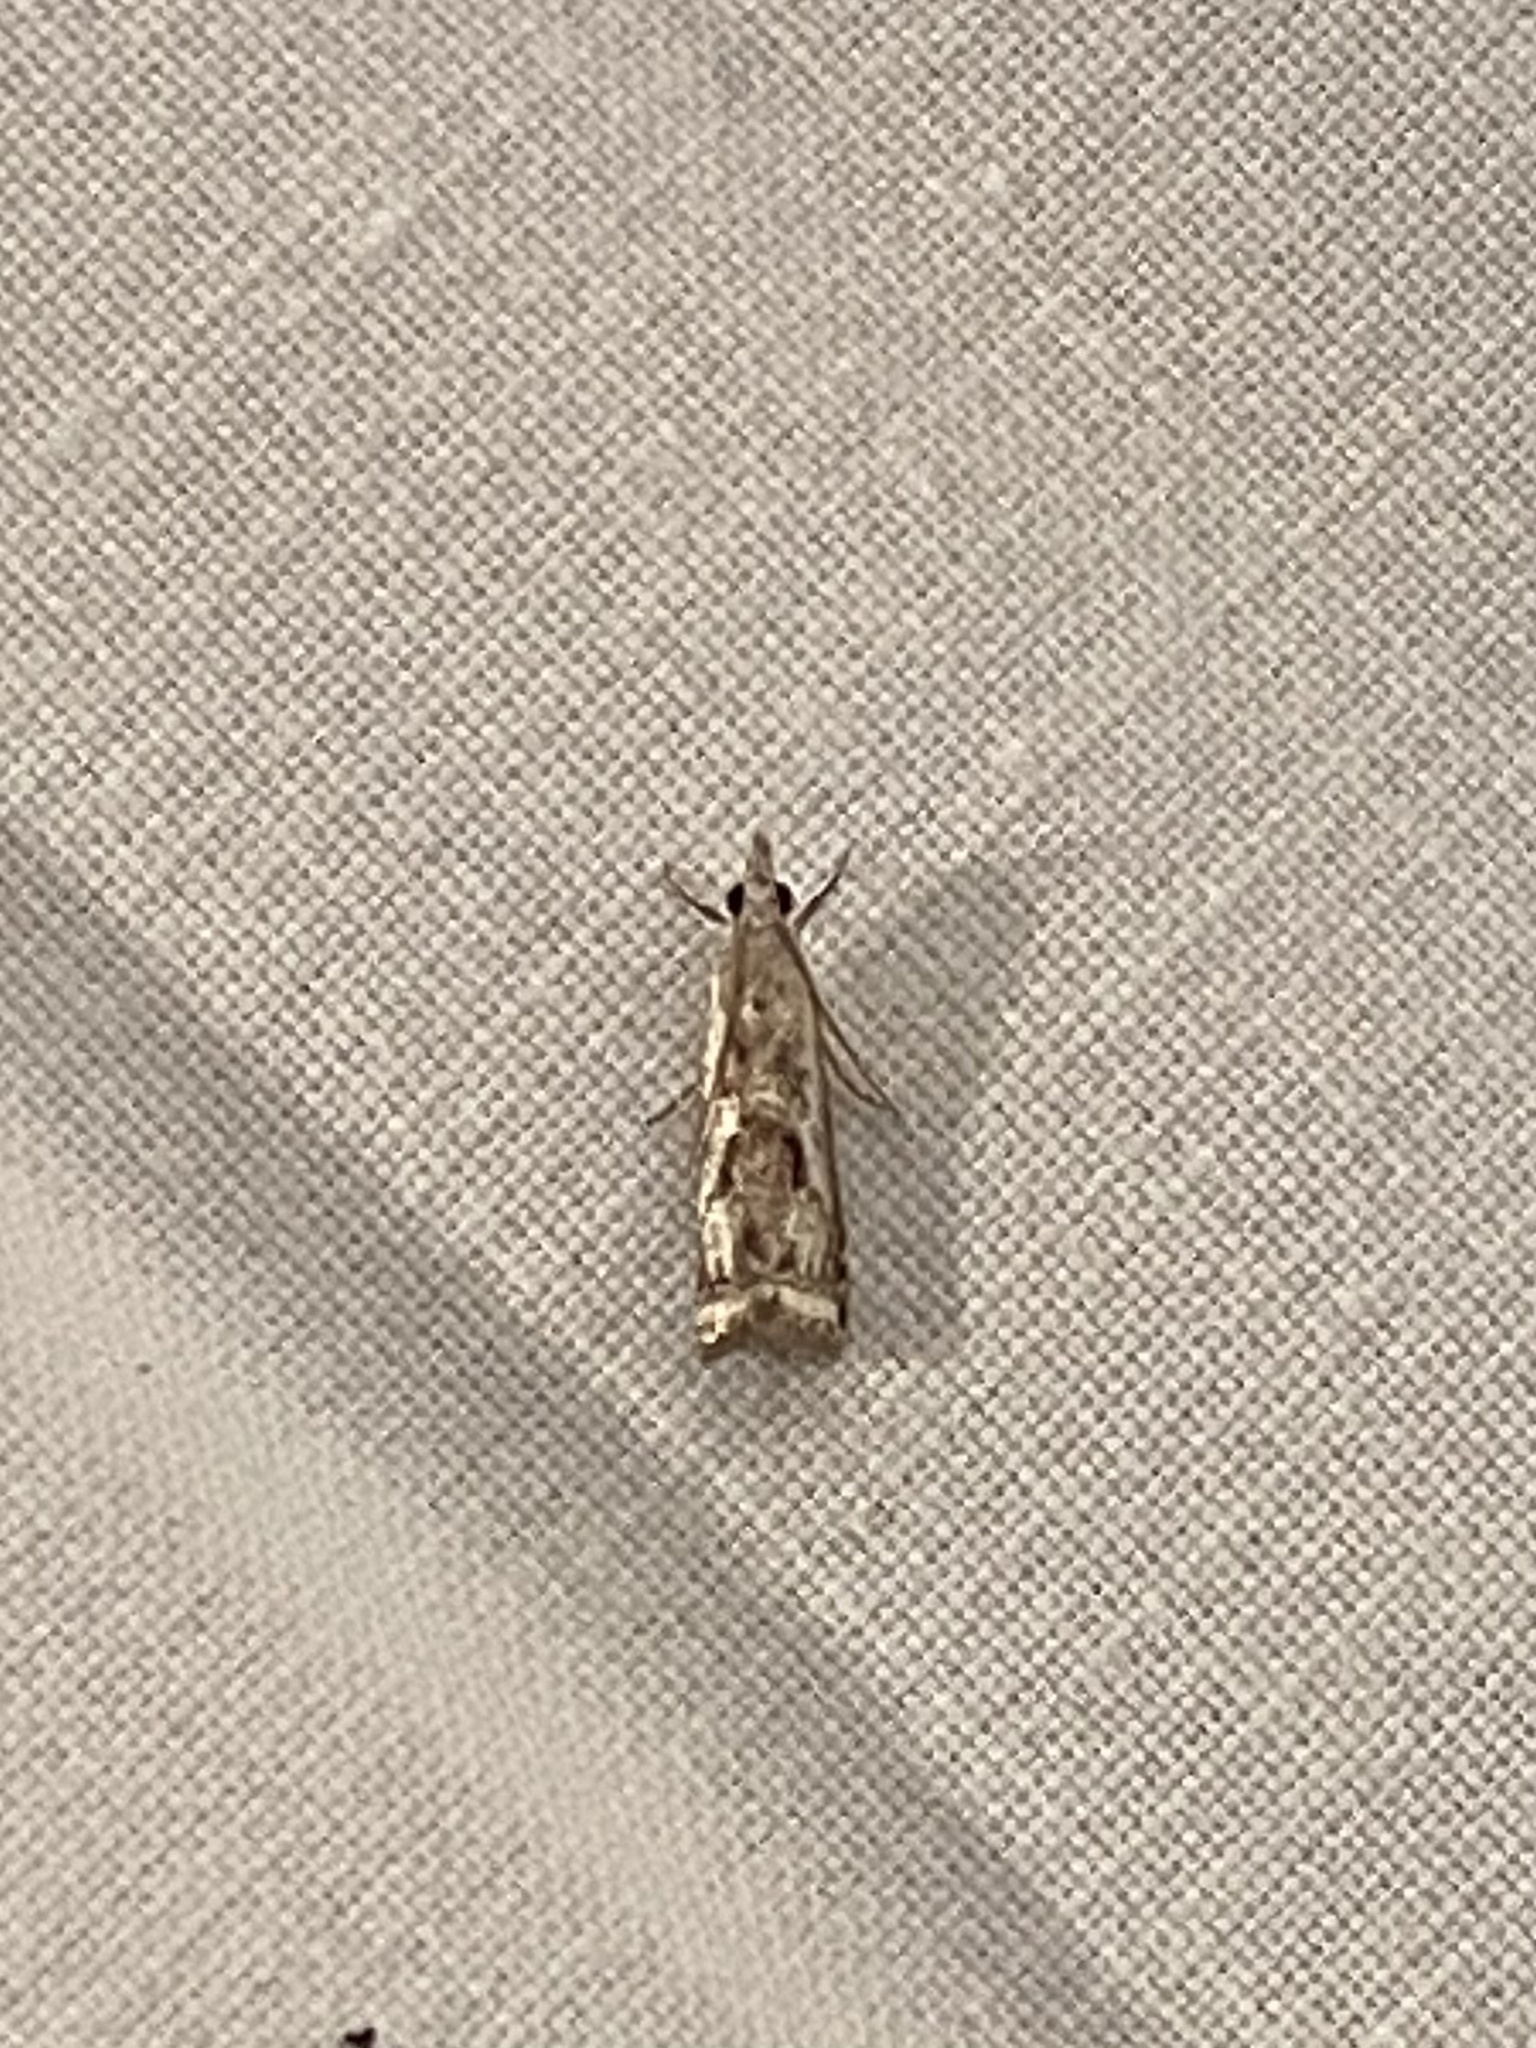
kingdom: Animalia
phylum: Arthropoda
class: Insecta
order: Lepidoptera
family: Crambidae
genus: Microcrambus
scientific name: Microcrambus elegans
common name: Elegant grass-veneer
